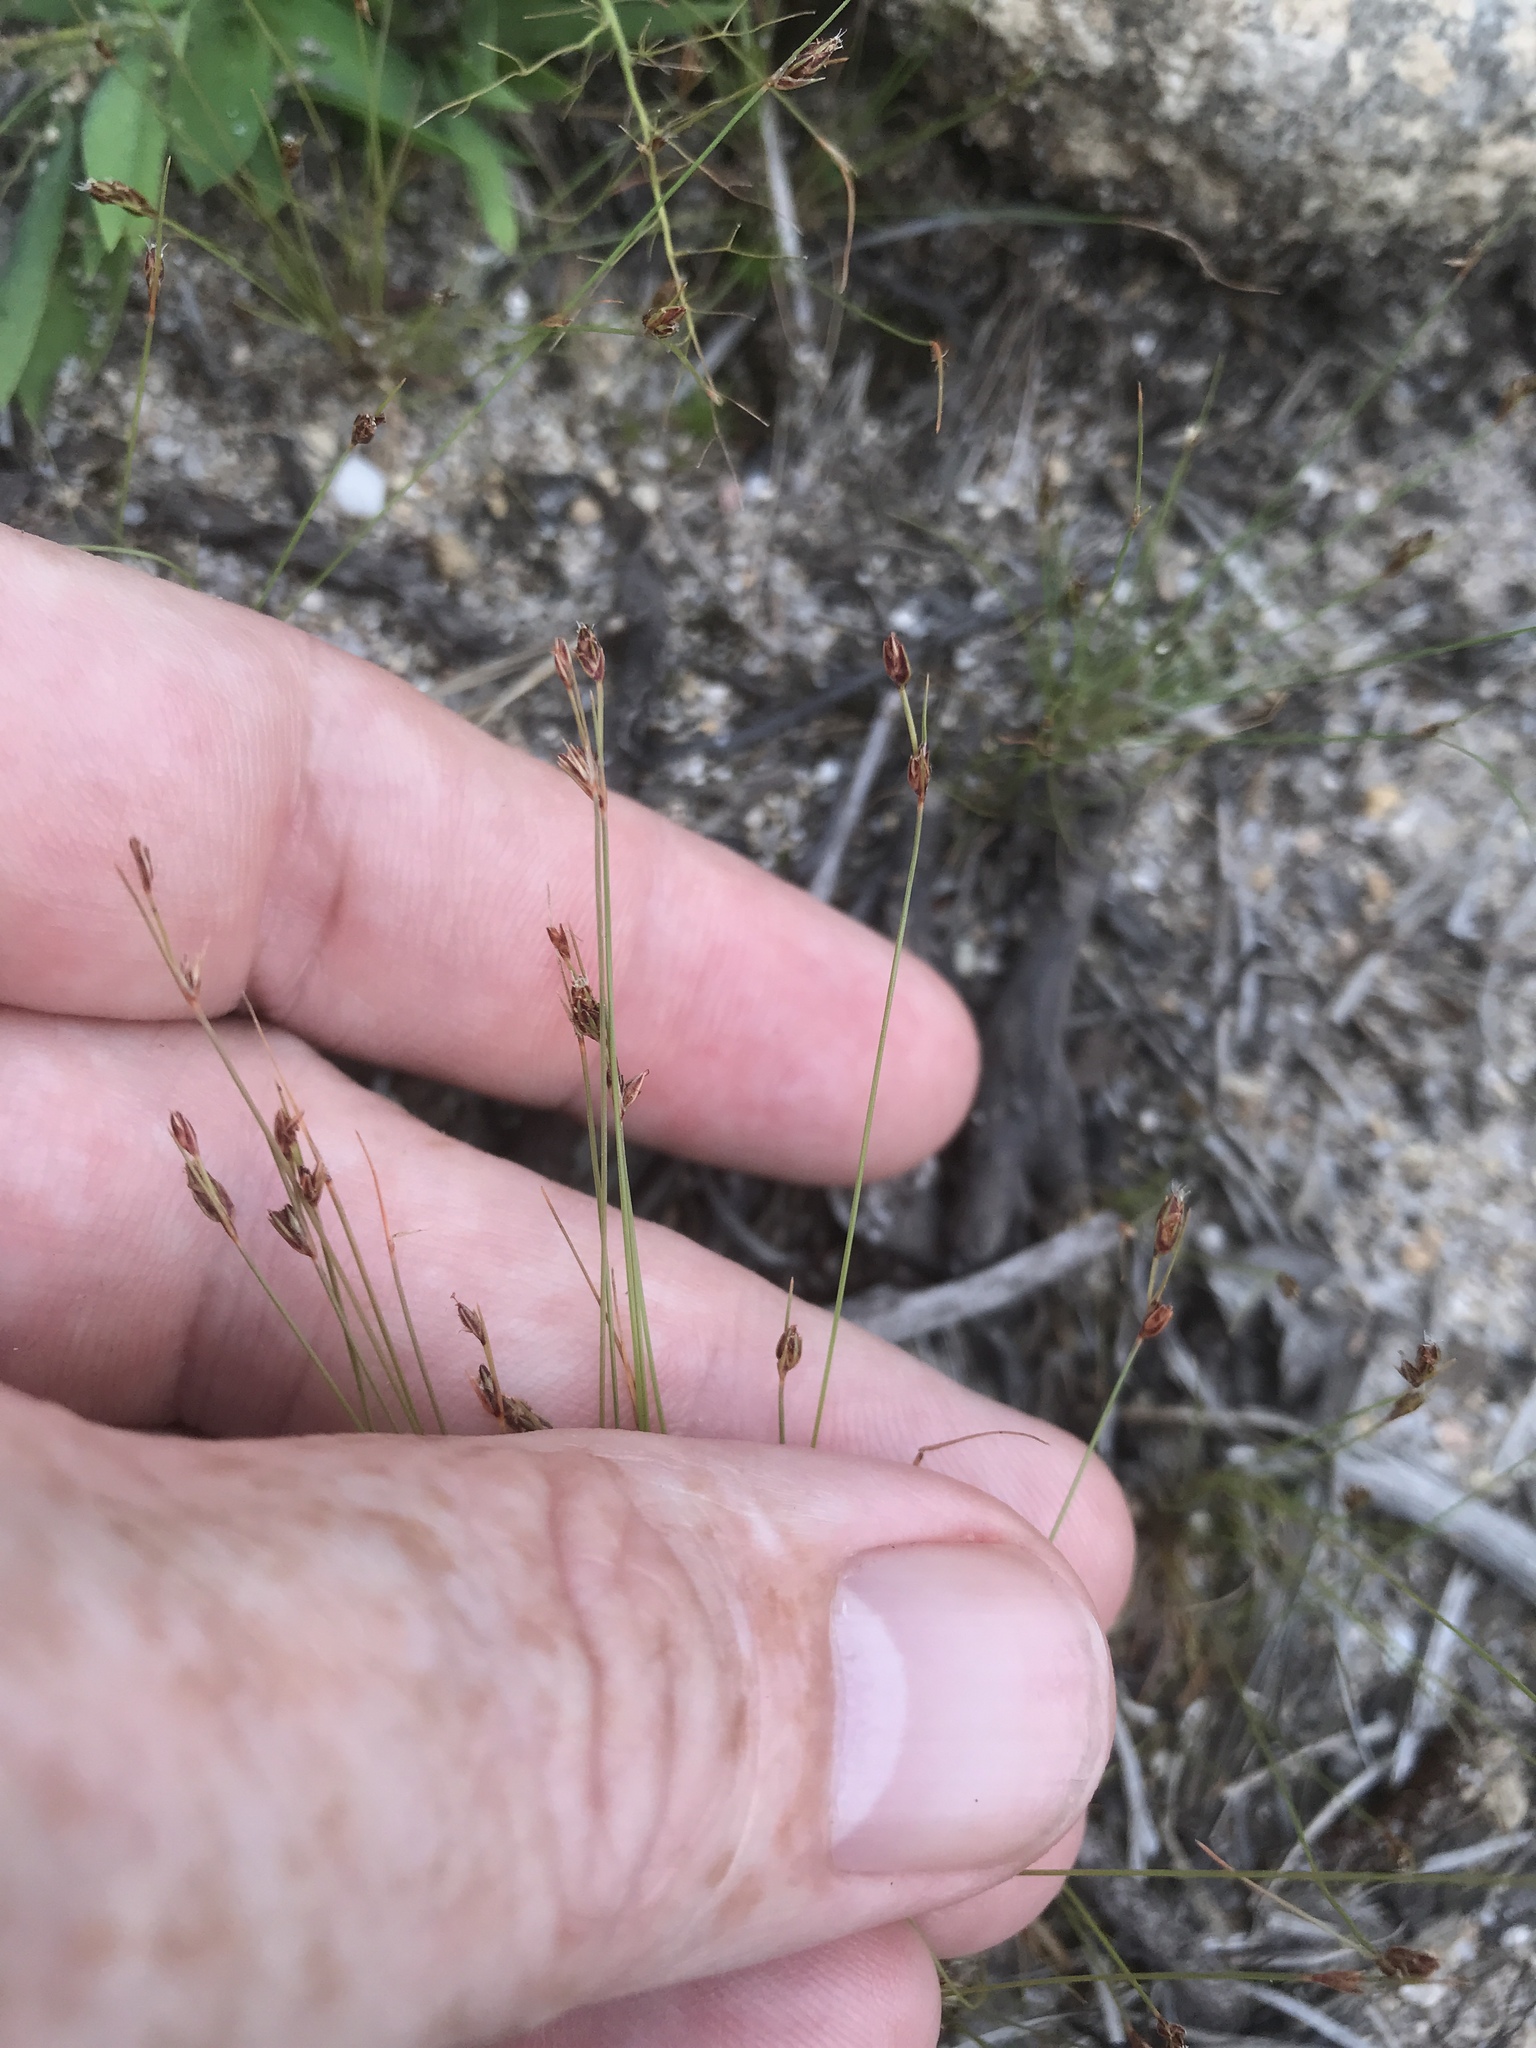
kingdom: Plantae
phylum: Tracheophyta
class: Liliopsida
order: Poales
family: Cyperaceae
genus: Bulbostylis
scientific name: Bulbostylis capillaris
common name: Densetuft hairsedge
